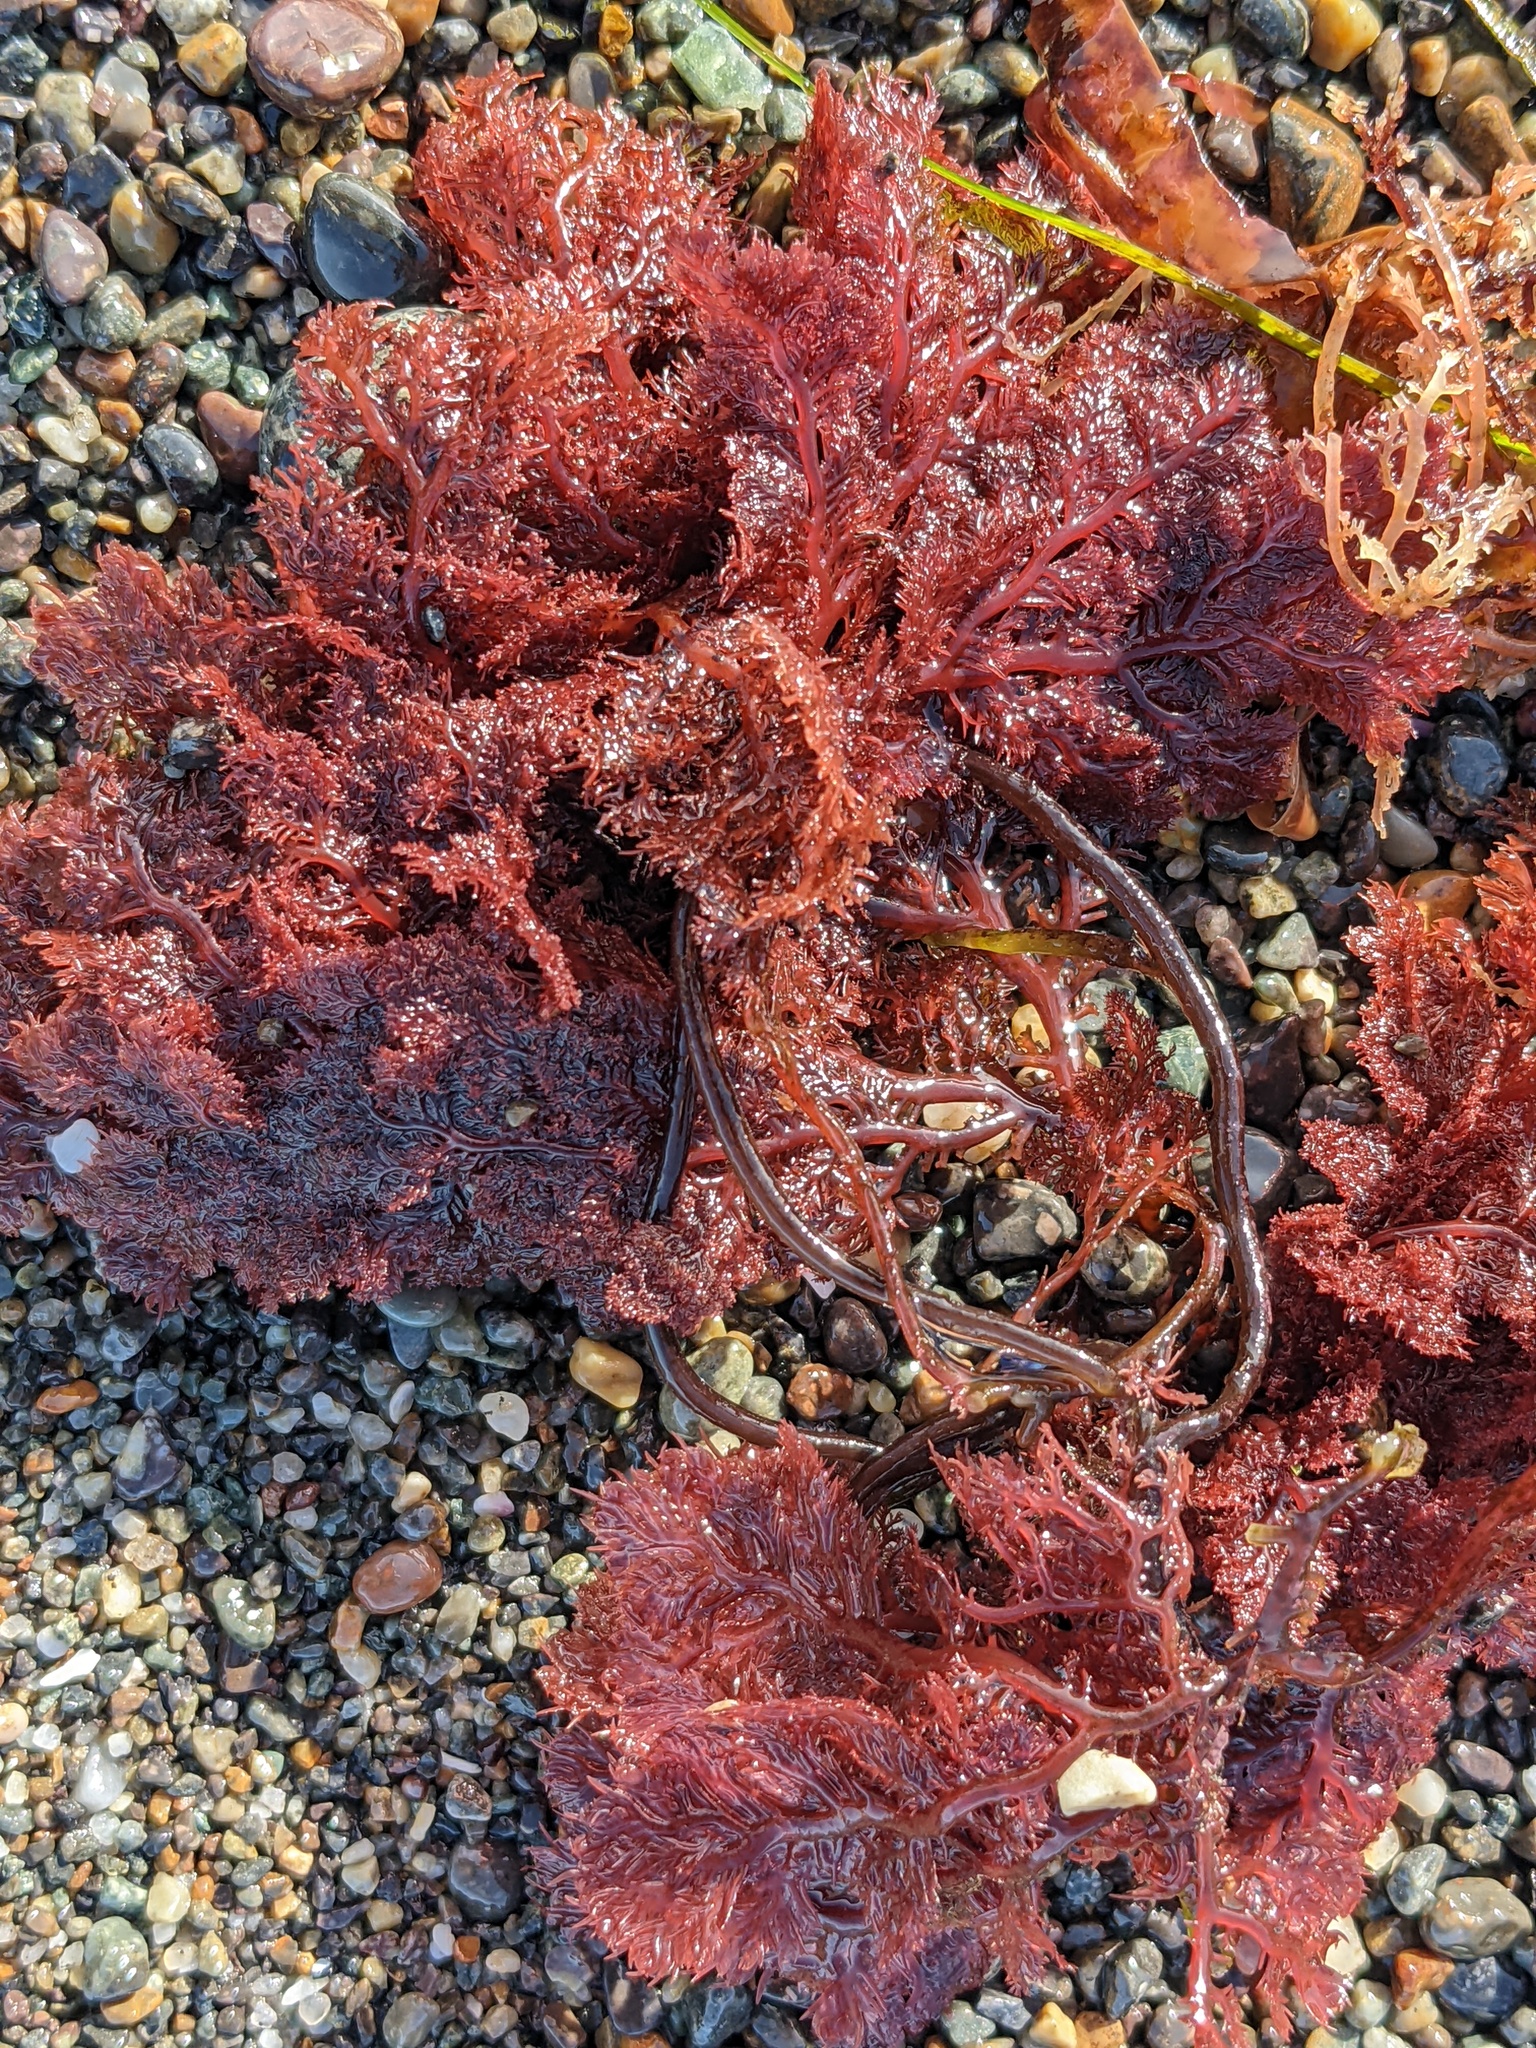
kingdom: Plantae
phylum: Rhodophyta
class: Florideophyceae
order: Plocamiales
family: Plocamiaceae
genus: Plocamium
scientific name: Plocamium cartilagineum
